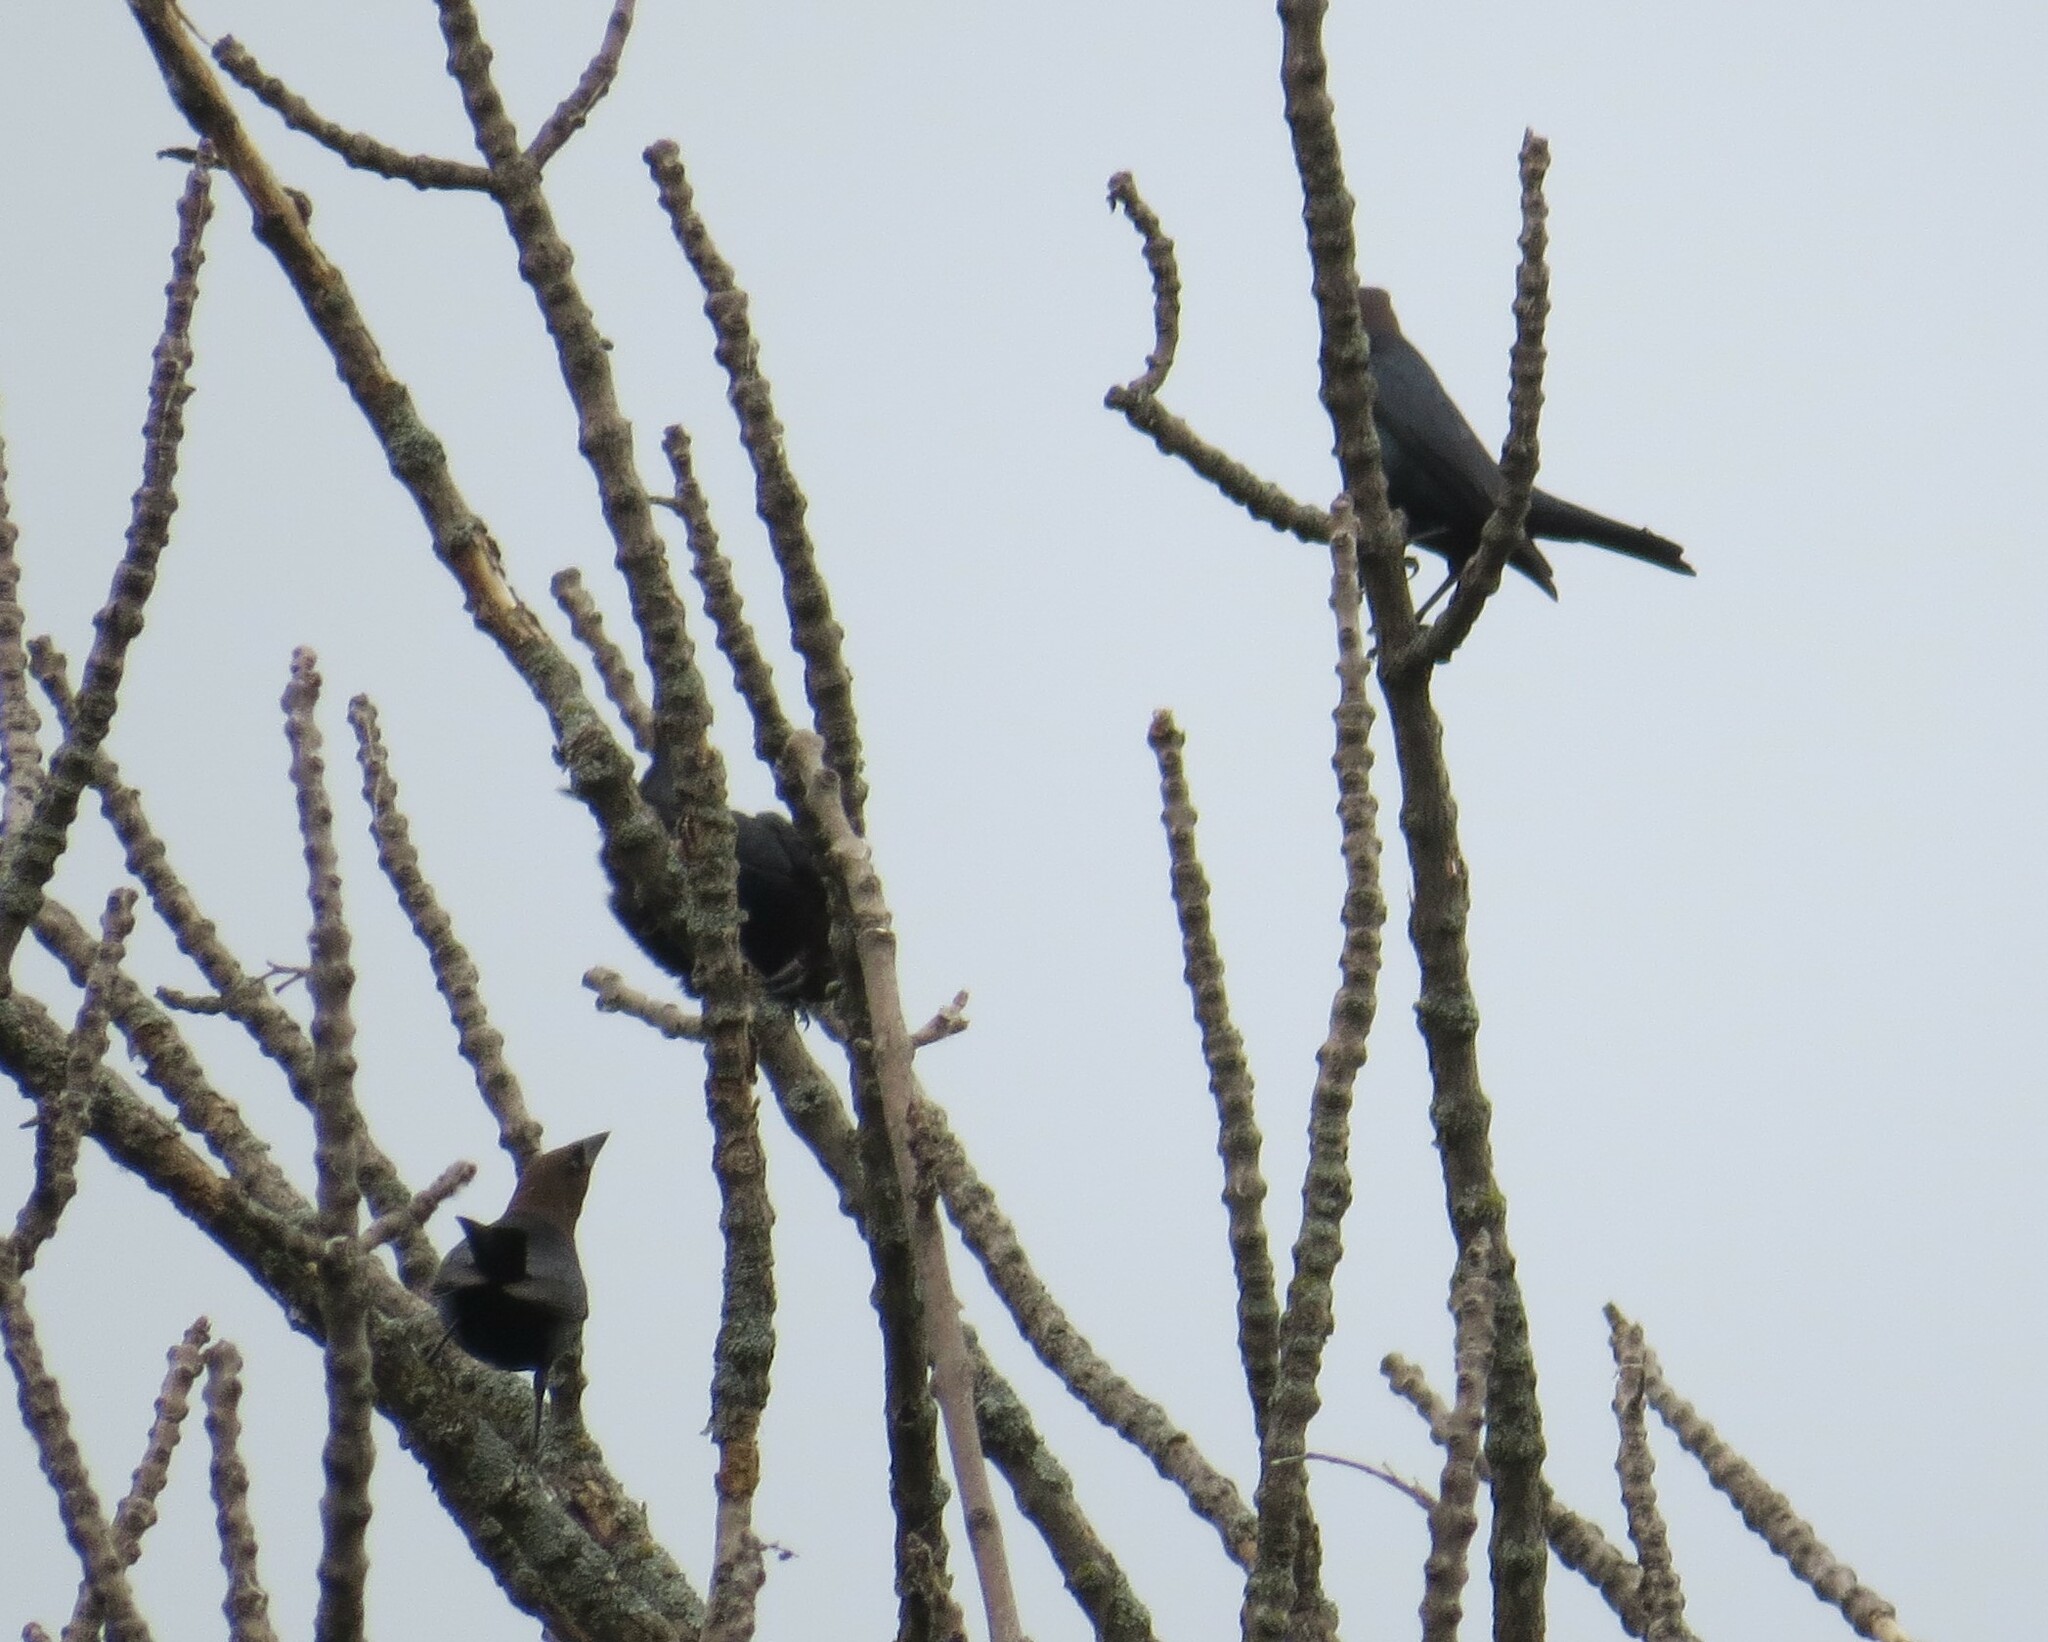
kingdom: Animalia
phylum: Chordata
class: Aves
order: Passeriformes
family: Icteridae
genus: Molothrus
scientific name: Molothrus ater
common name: Brown-headed cowbird
